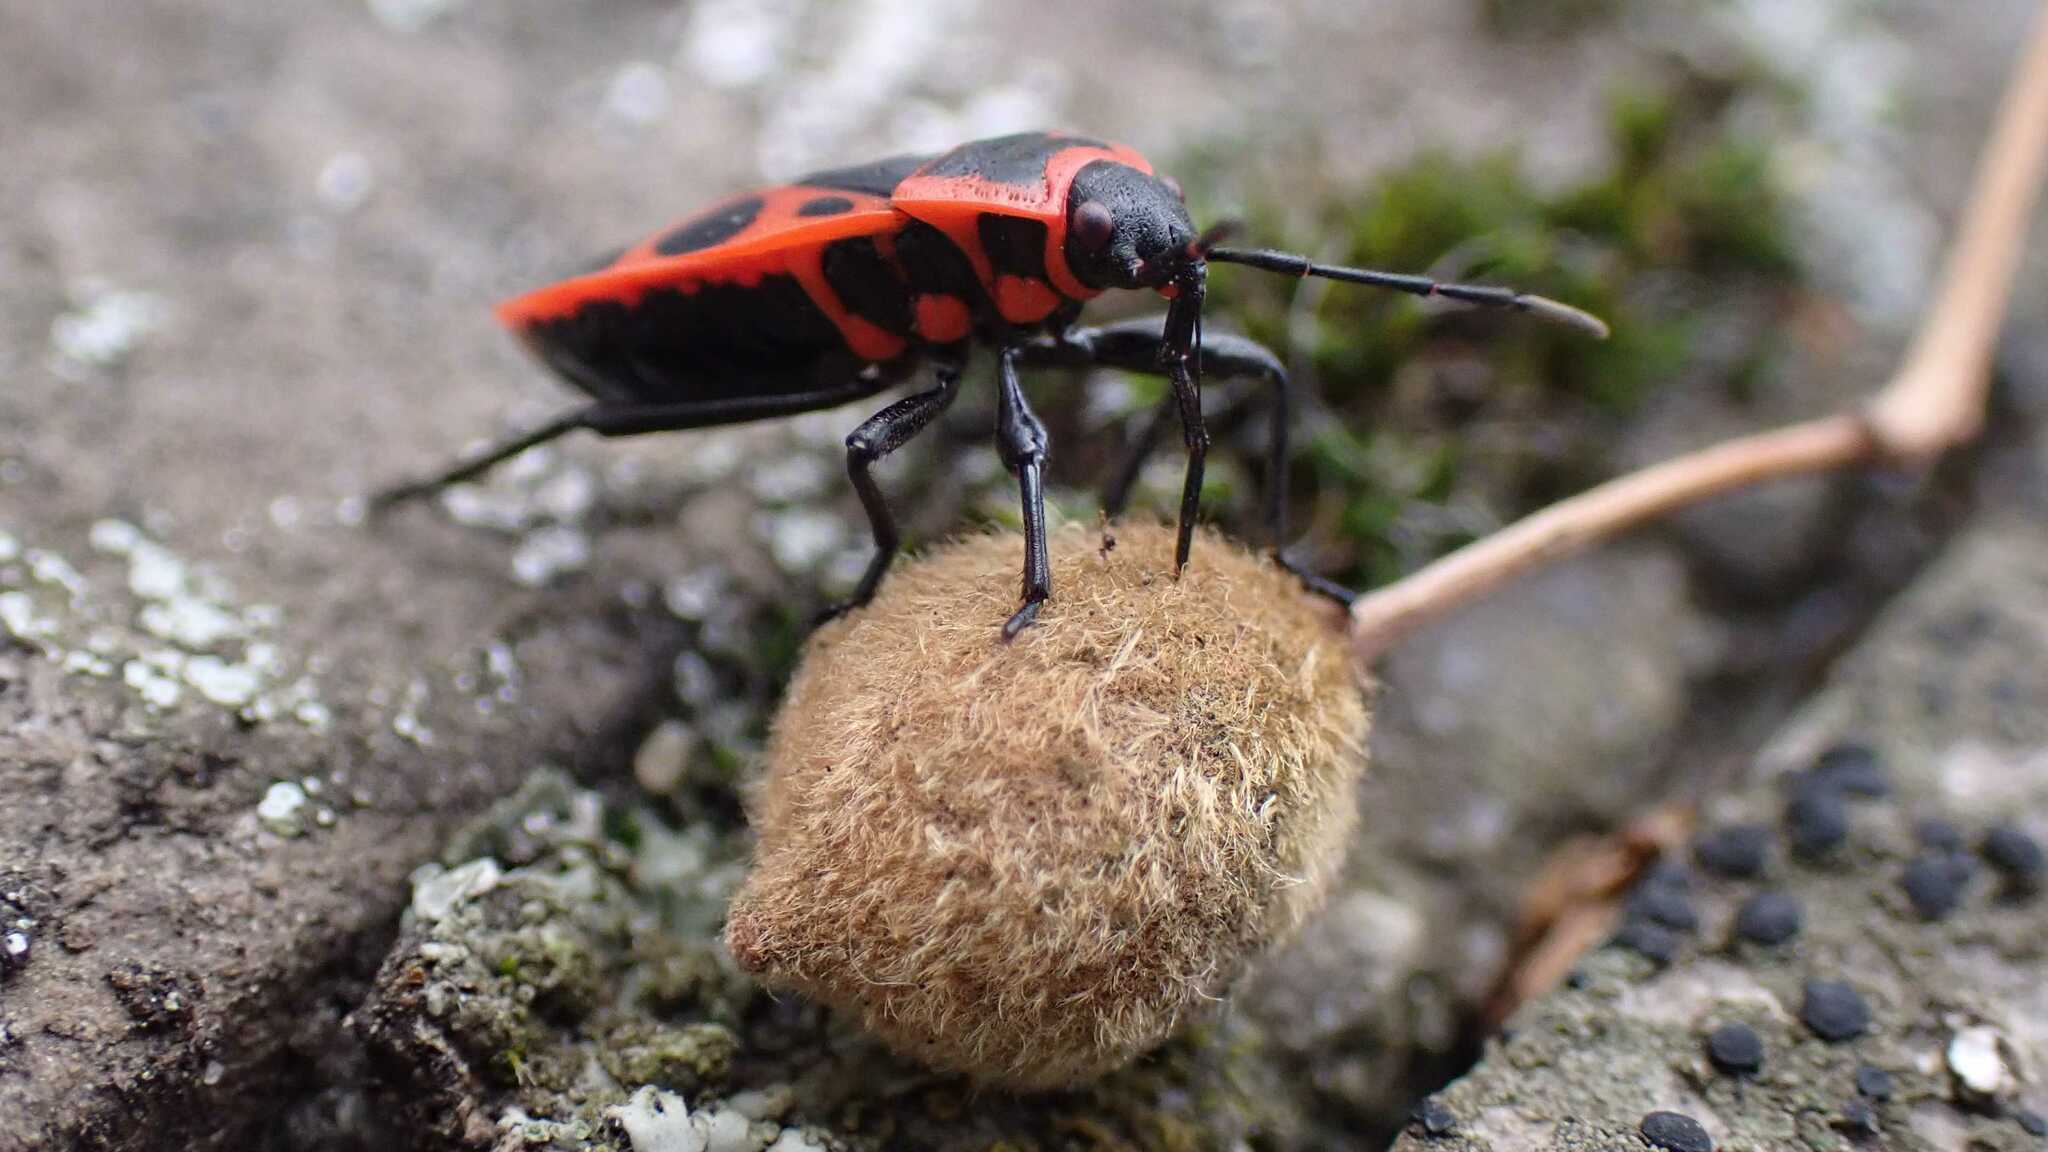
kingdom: Animalia
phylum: Arthropoda
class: Insecta
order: Hemiptera
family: Pyrrhocoridae
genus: Pyrrhocoris
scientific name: Pyrrhocoris apterus
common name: Firebug
